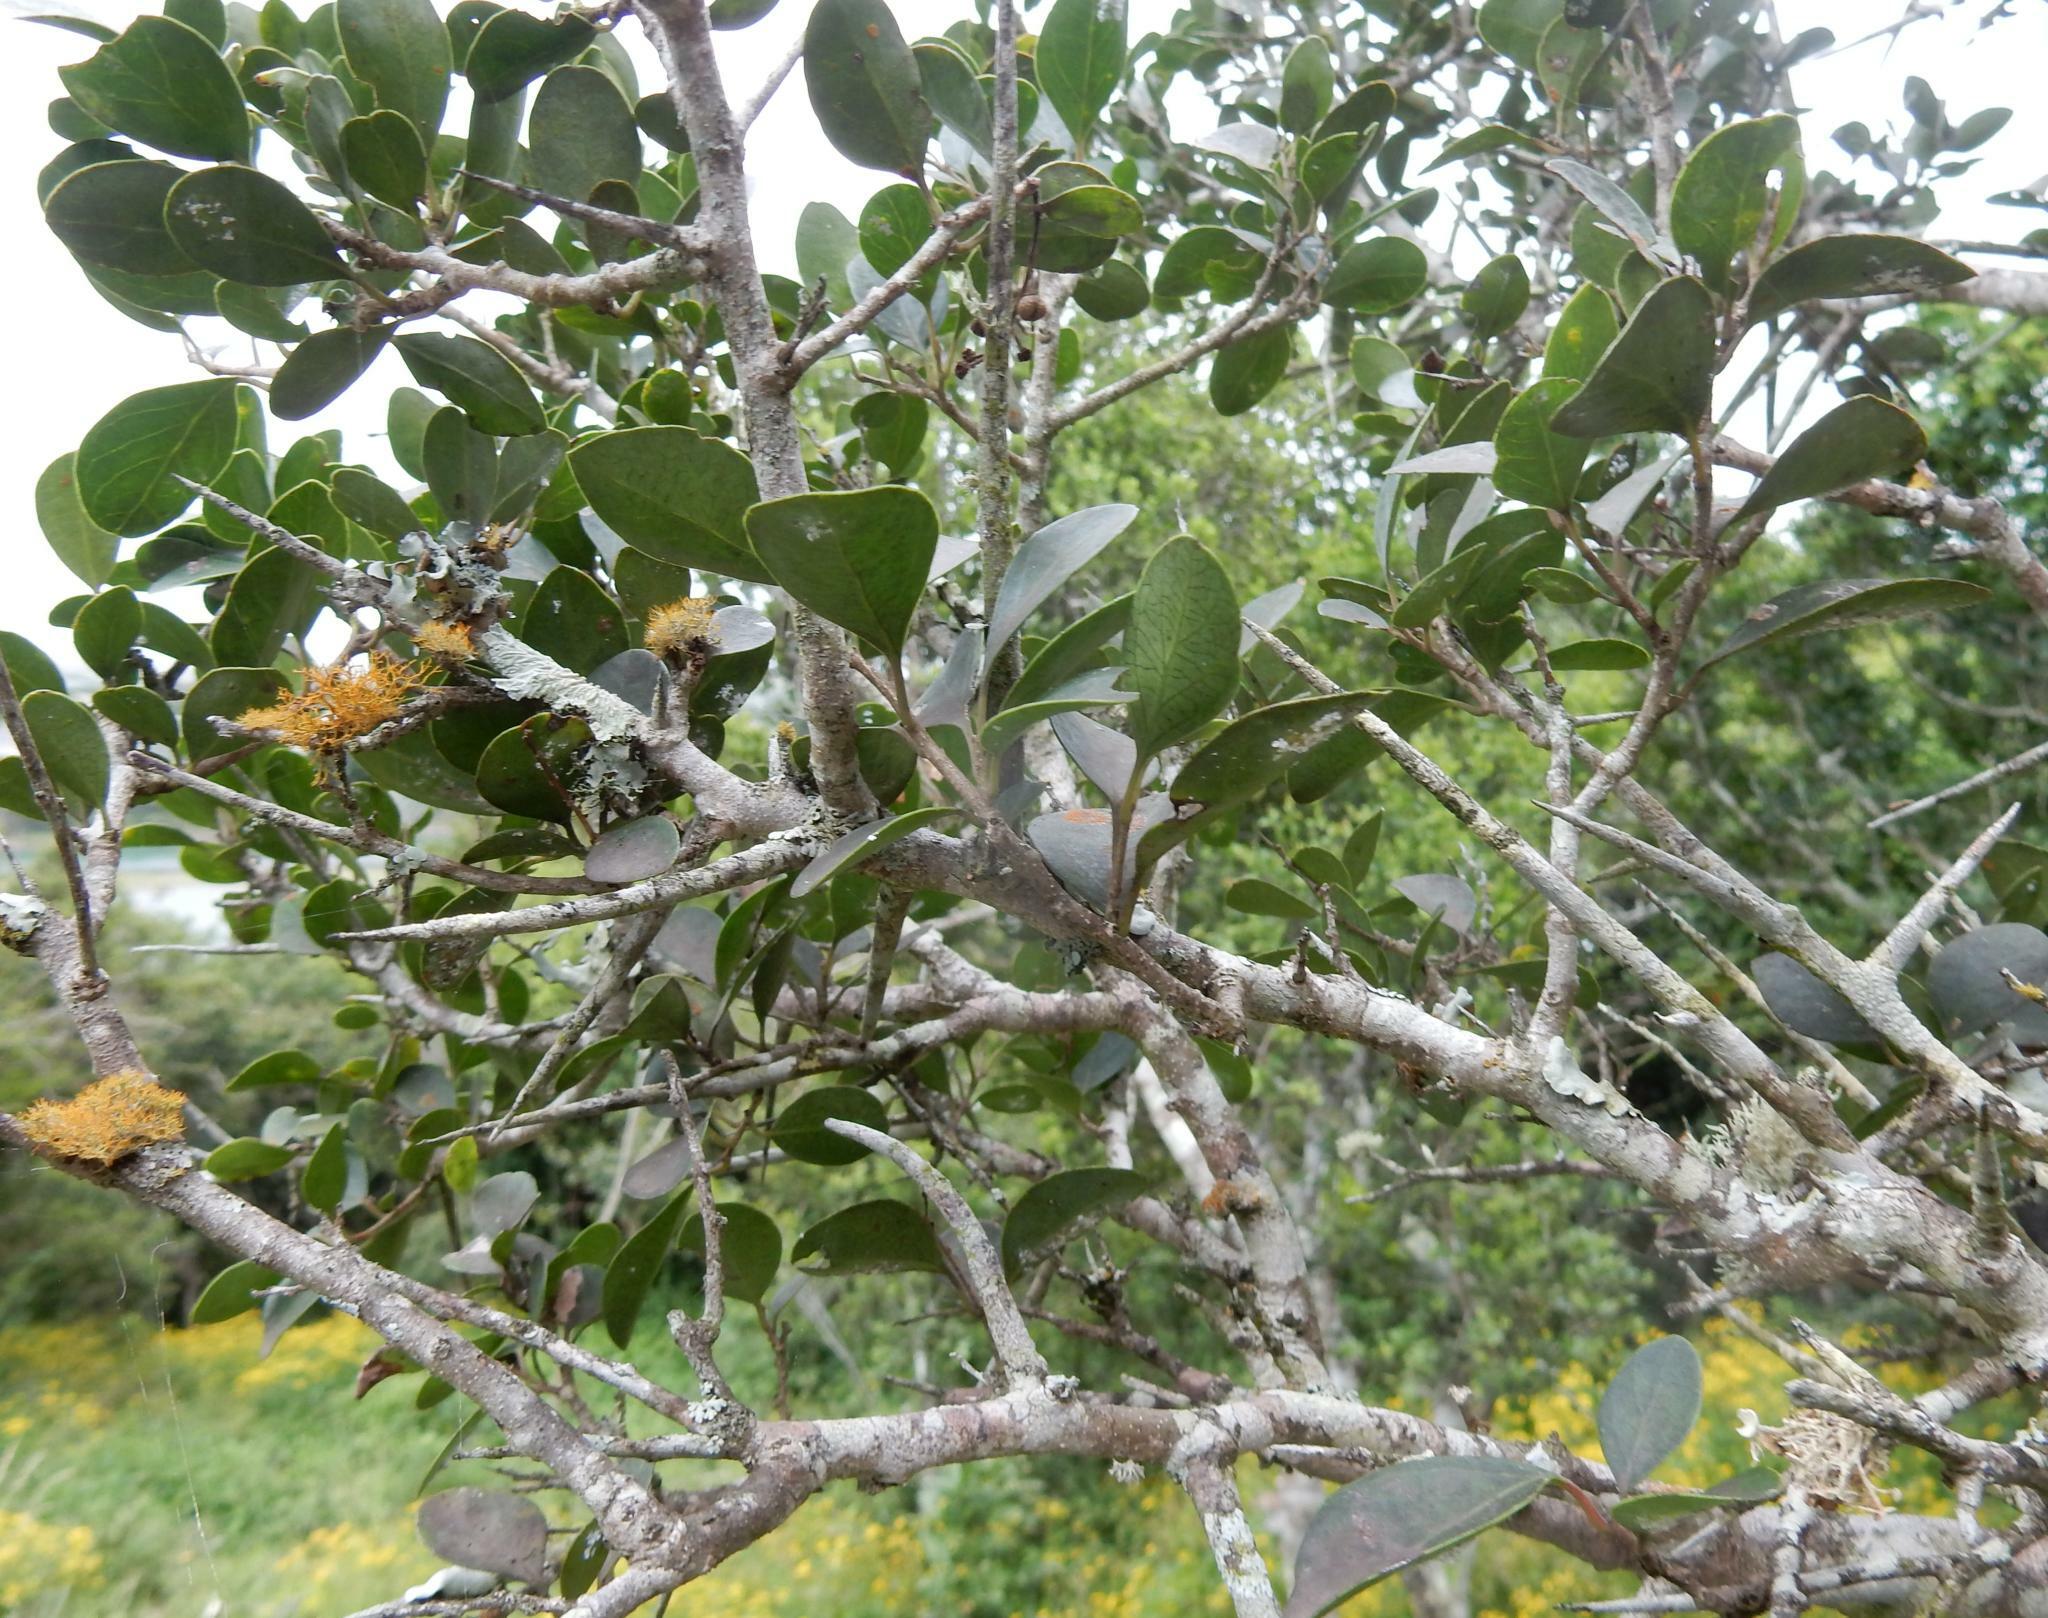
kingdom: Plantae
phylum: Tracheophyta
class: Magnoliopsida
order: Malpighiales
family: Salicaceae
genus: Scolopia
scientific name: Scolopia zeyheri
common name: Thorn pear
